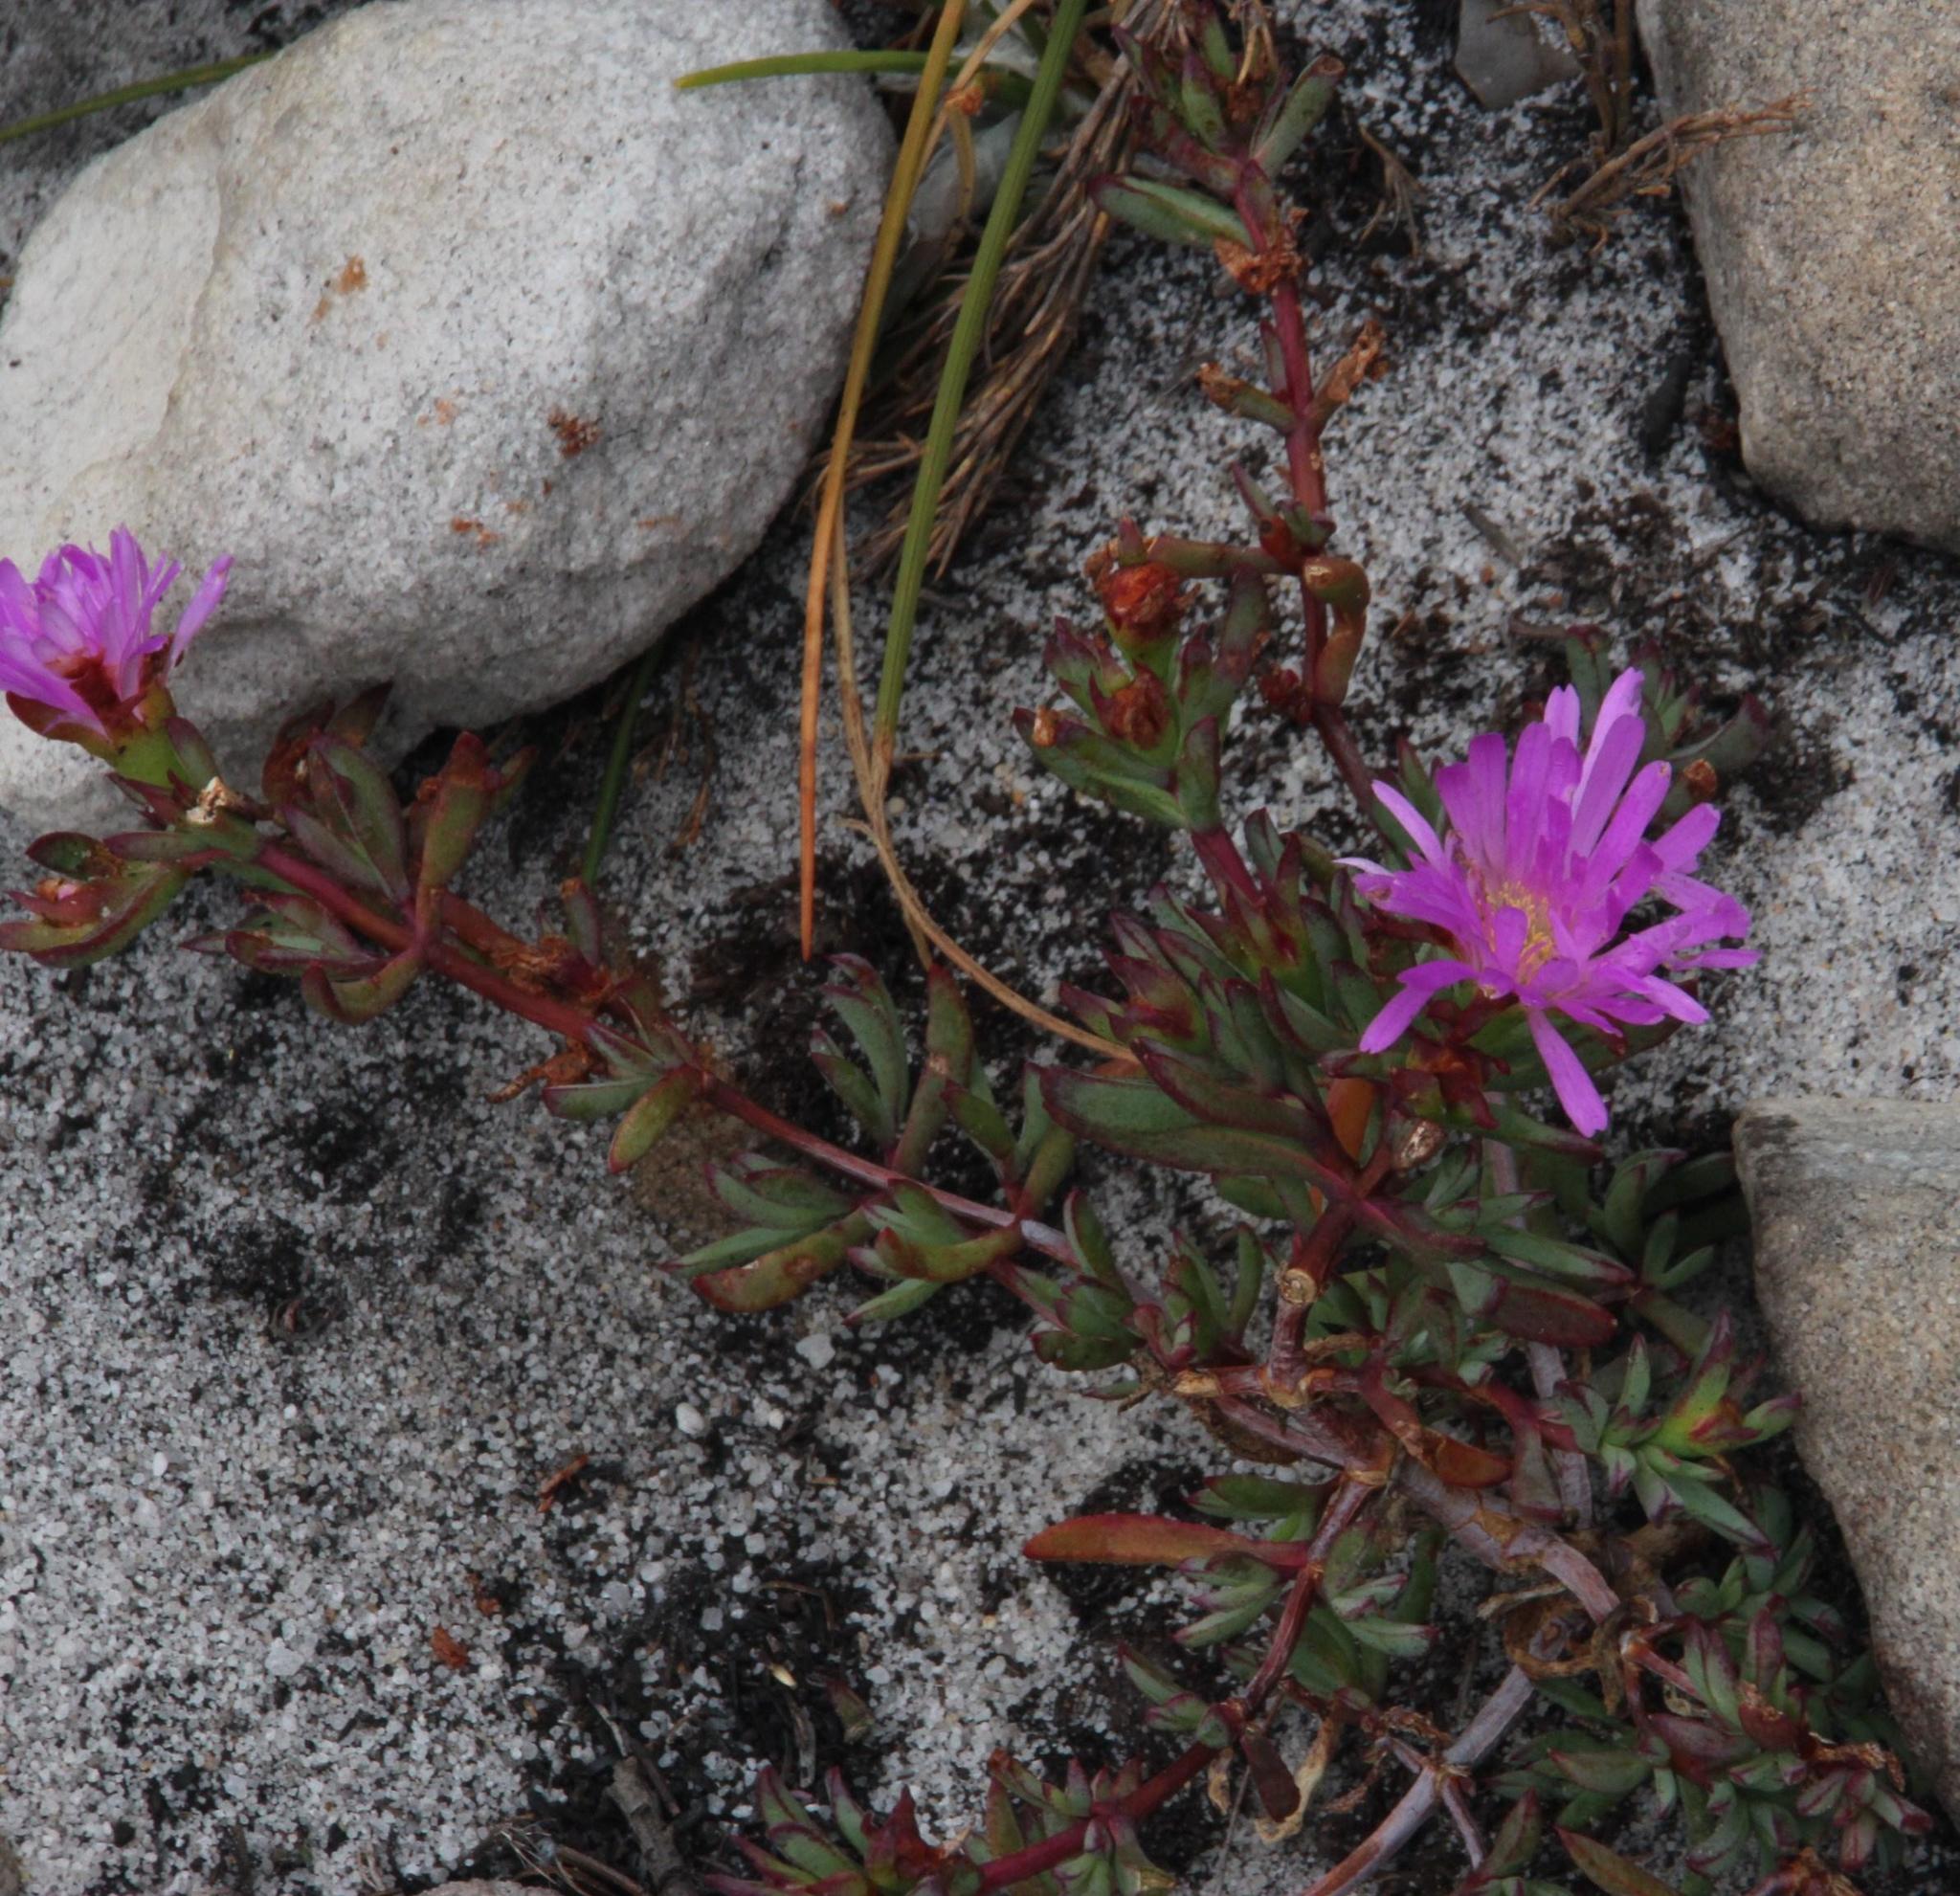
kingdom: Plantae
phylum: Tracheophyta
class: Magnoliopsida
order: Caryophyllales
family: Aizoaceae
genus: Lampranthus
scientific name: Lampranthus emarginatus
